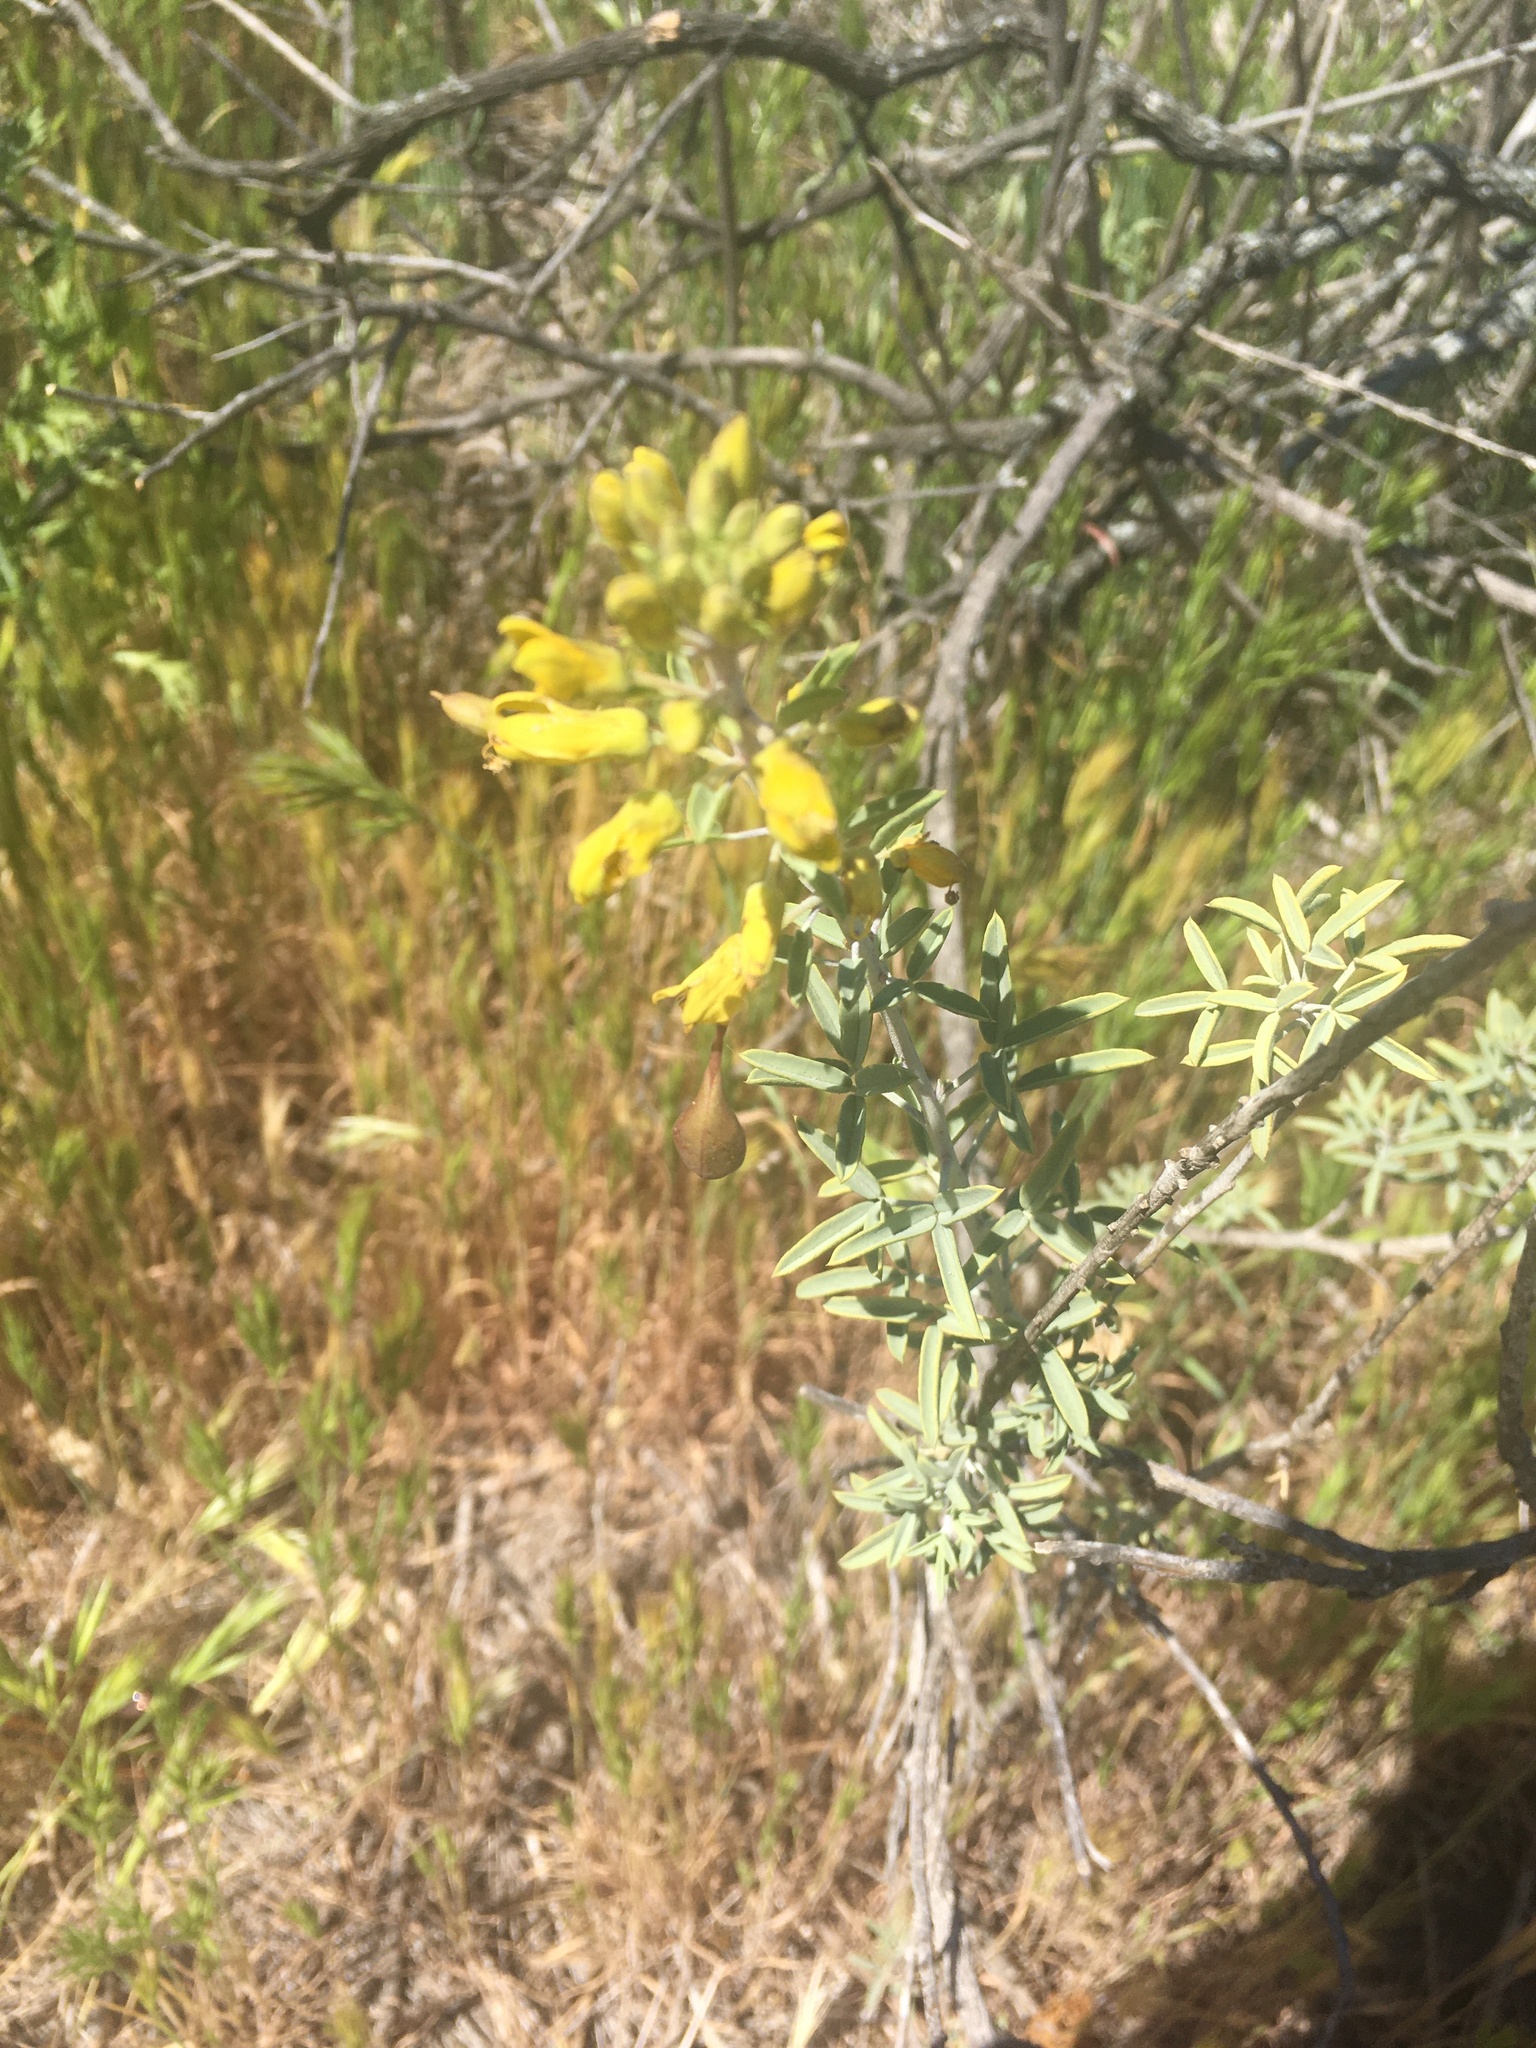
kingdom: Plantae
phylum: Tracheophyta
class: Magnoliopsida
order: Brassicales
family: Cleomaceae
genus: Cleomella
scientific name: Cleomella arborea
